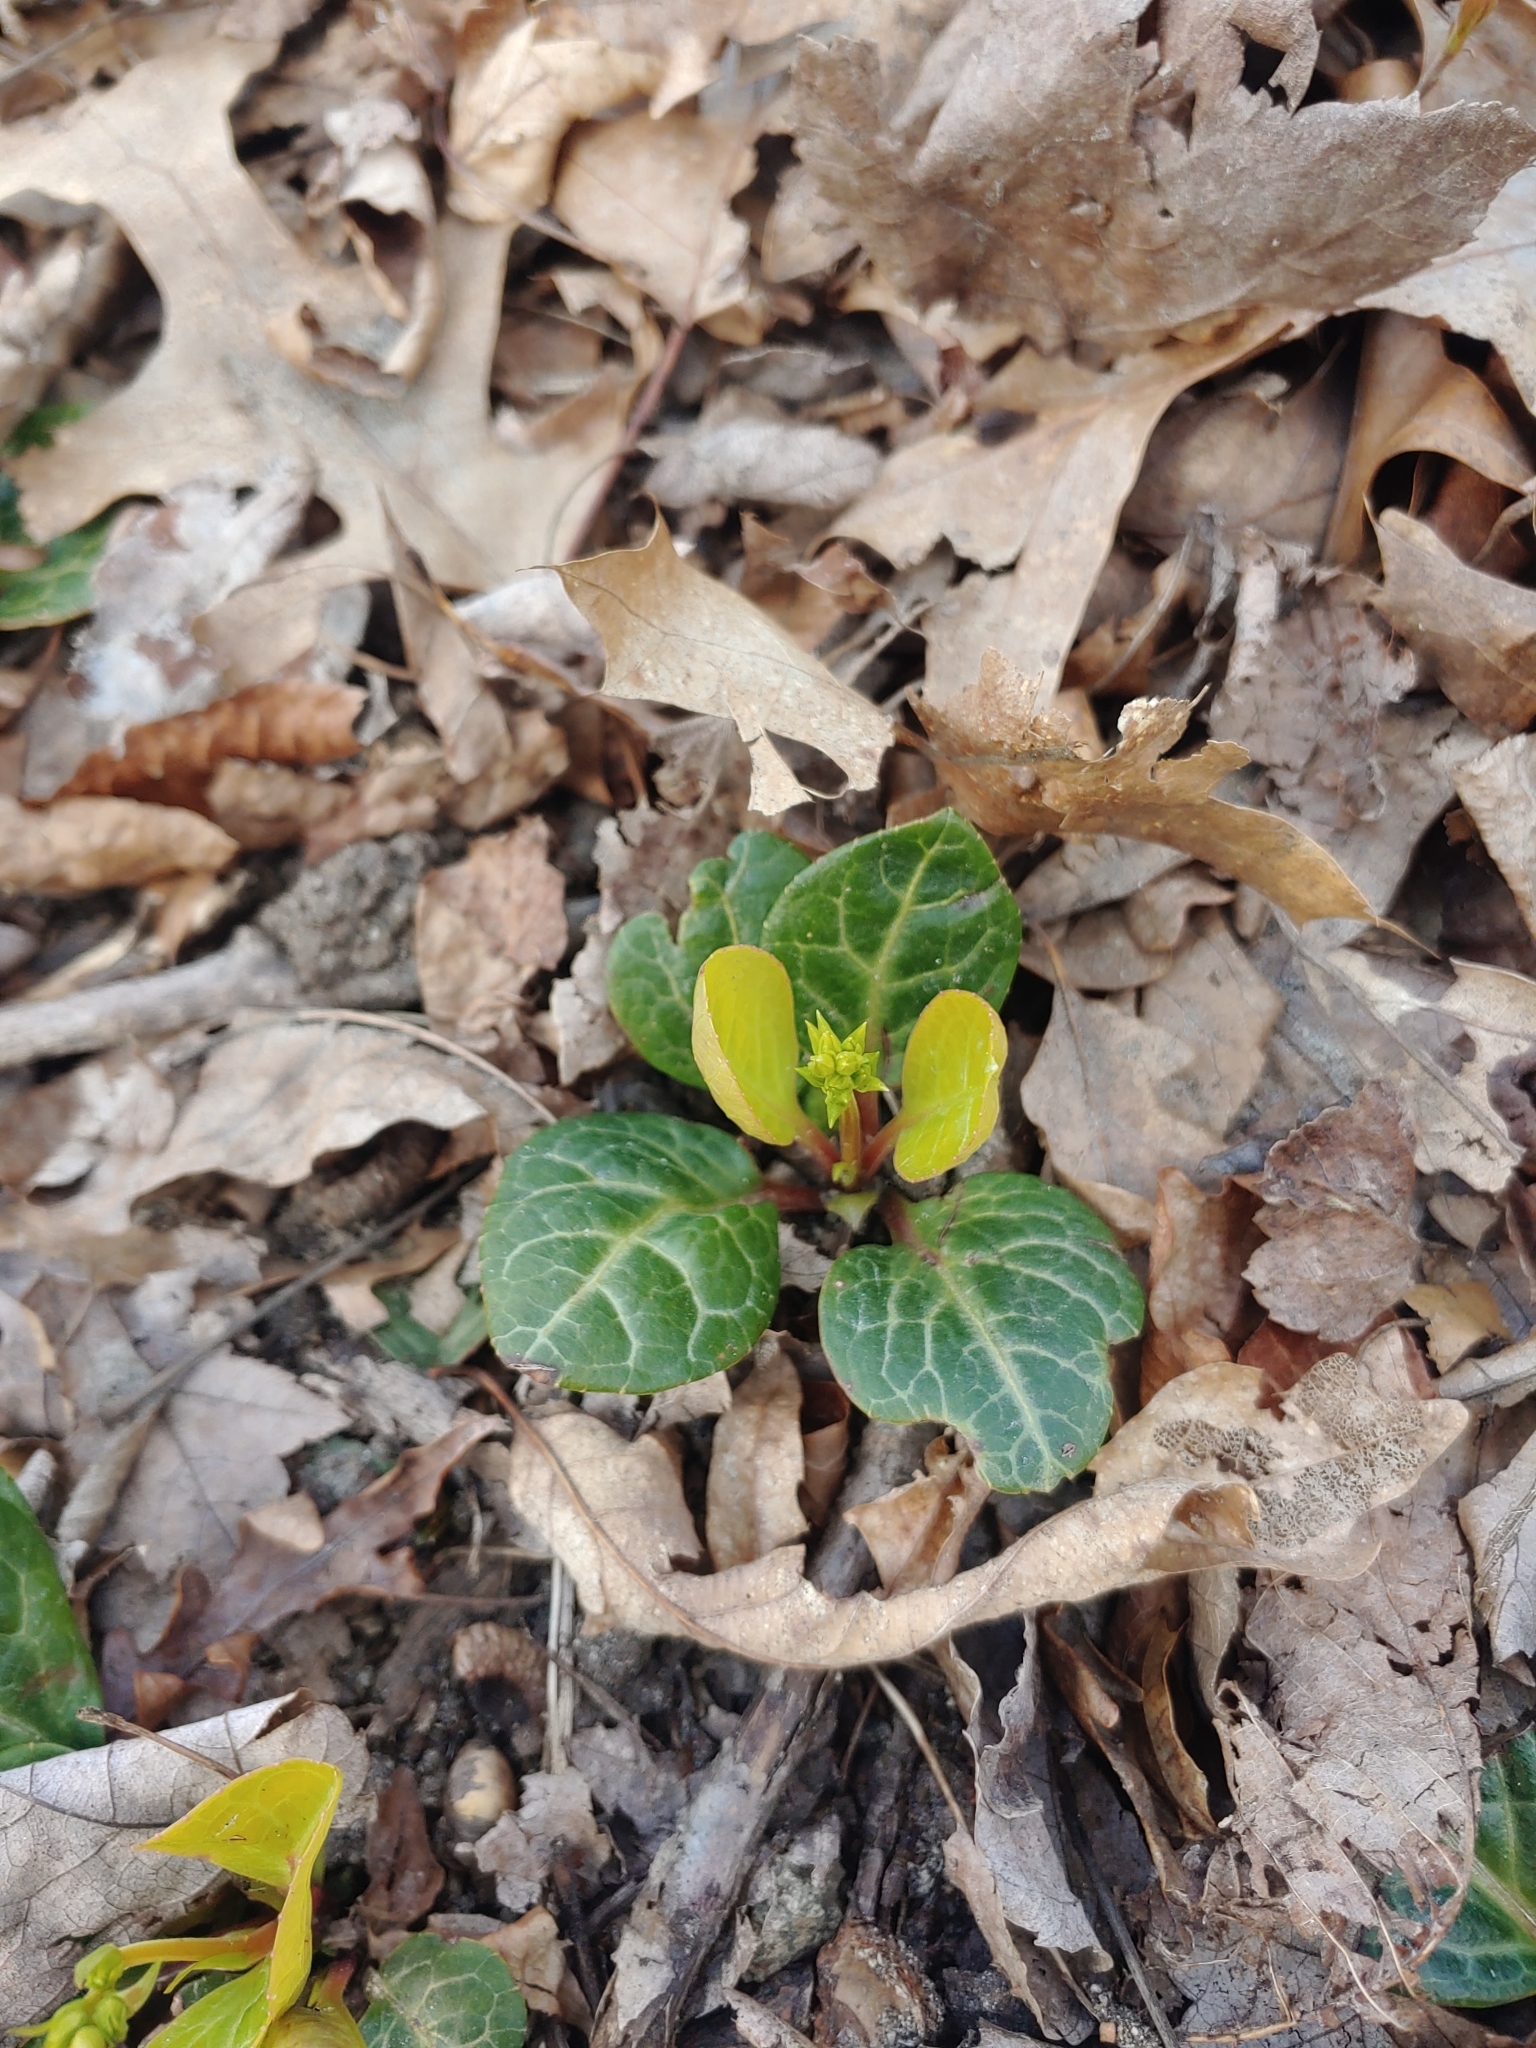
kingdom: Plantae
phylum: Tracheophyta
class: Magnoliopsida
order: Ericales
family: Ericaceae
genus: Pyrola
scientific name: Pyrola americana
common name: American wintergreen
